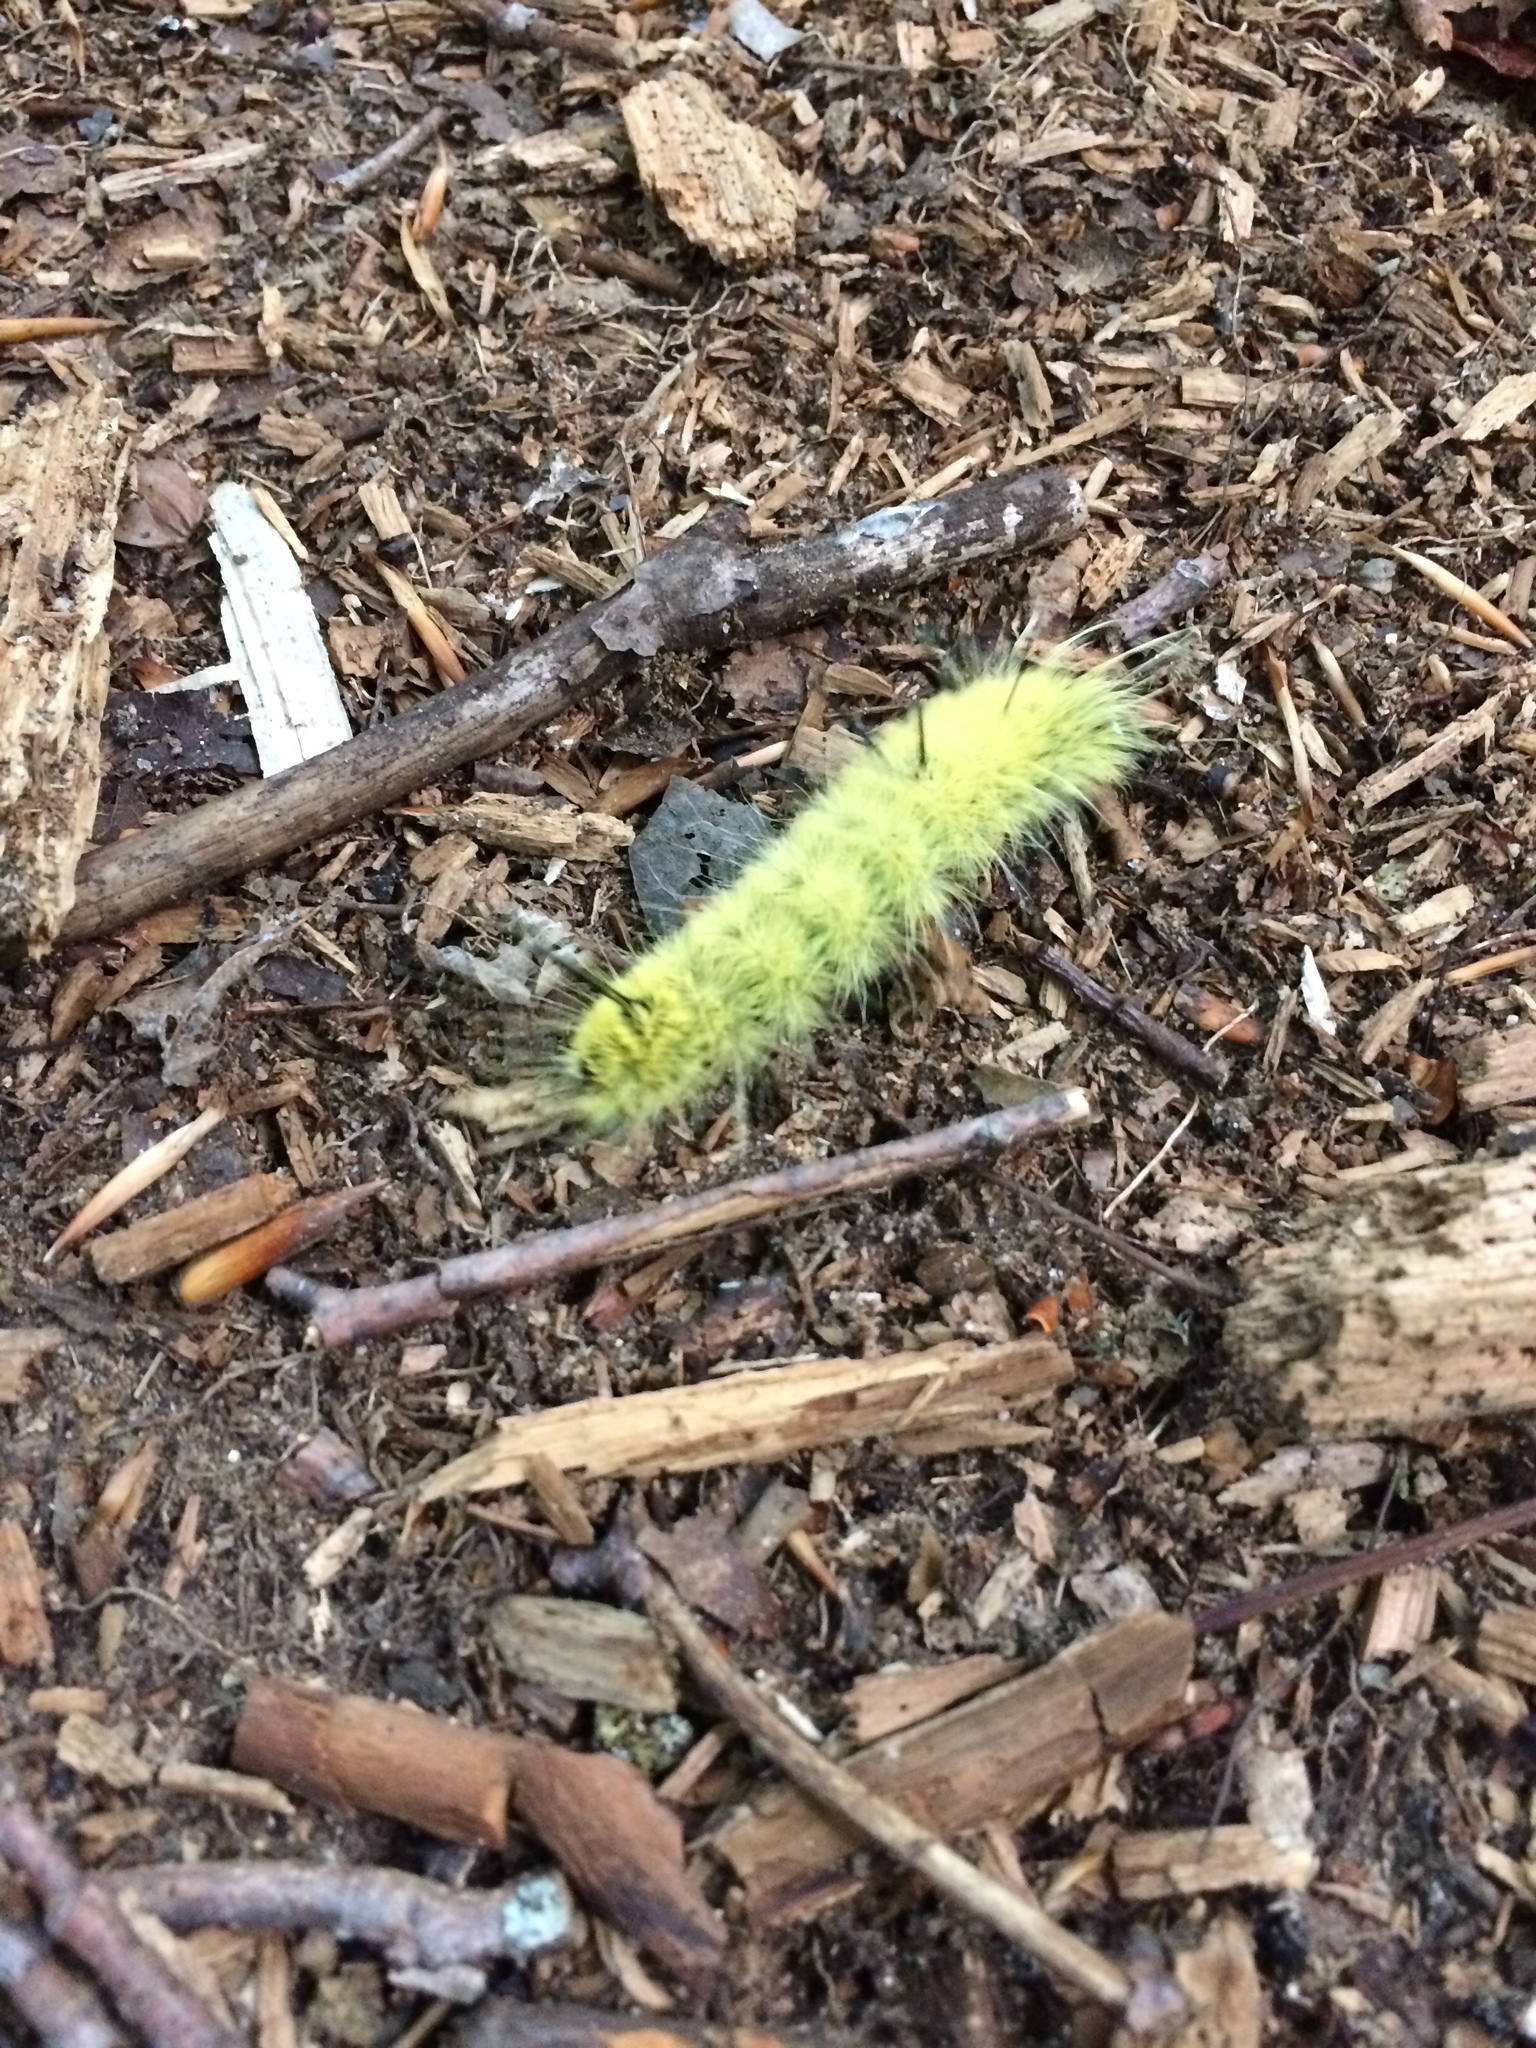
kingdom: Animalia
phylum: Arthropoda
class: Insecta
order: Lepidoptera
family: Noctuidae
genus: Acronicta
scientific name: Acronicta americana
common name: American dagger
